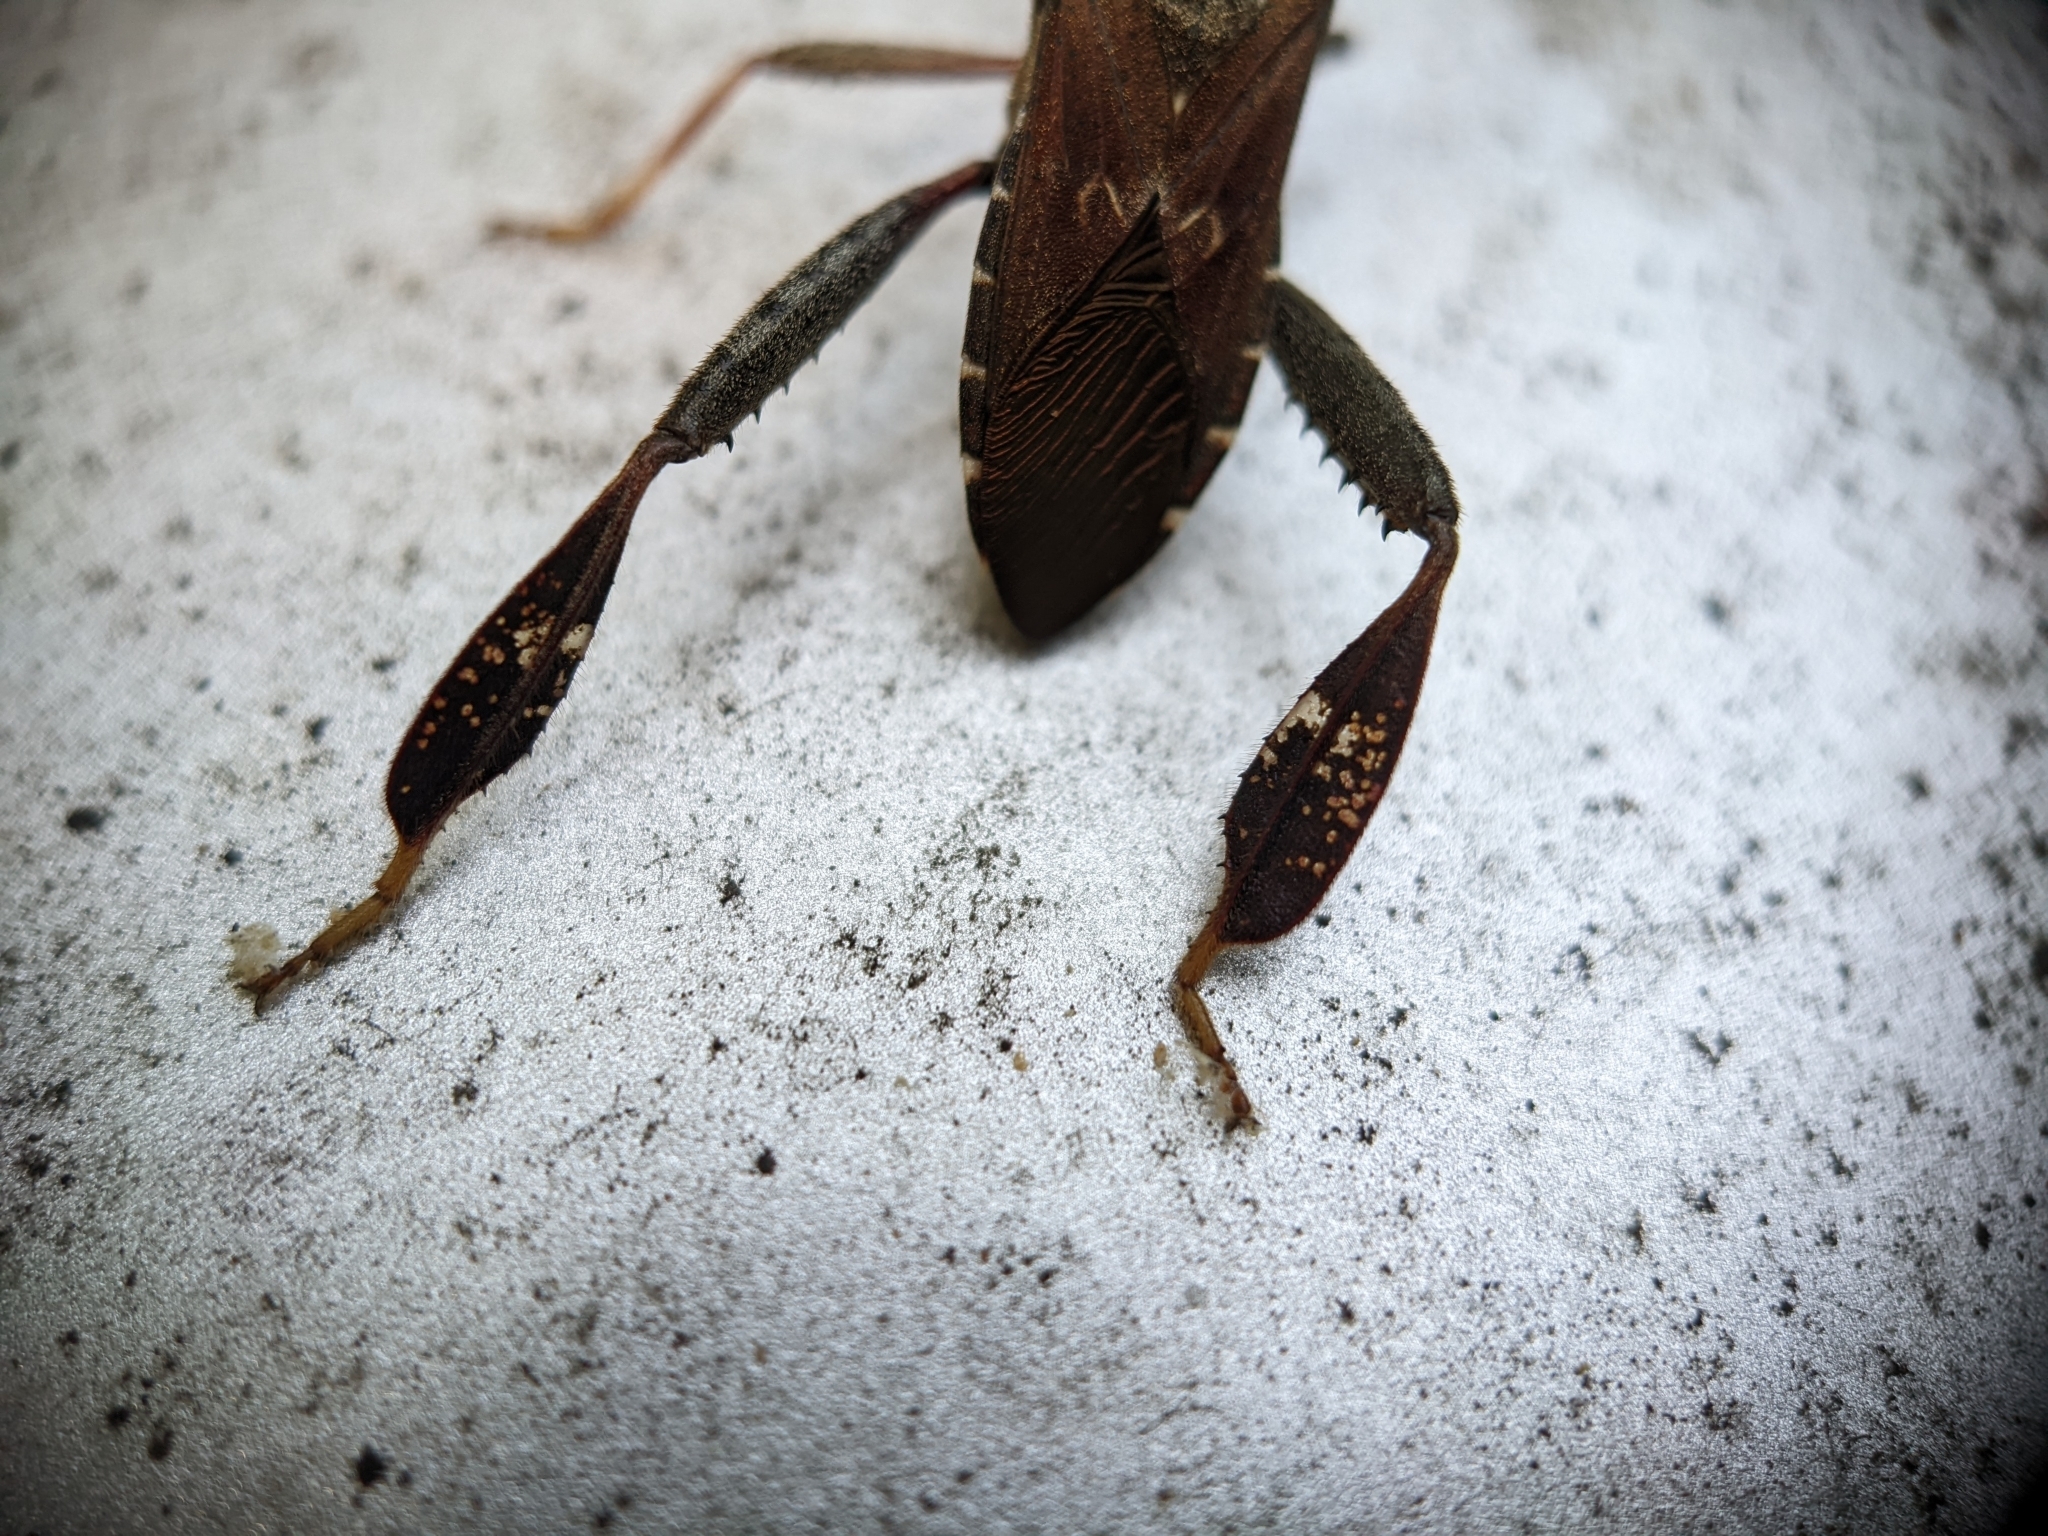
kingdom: Animalia
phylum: Arthropoda
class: Insecta
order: Hemiptera
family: Coreidae
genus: Leptoglossus
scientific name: Leptoglossus corculus
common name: Southern pine seed bug
